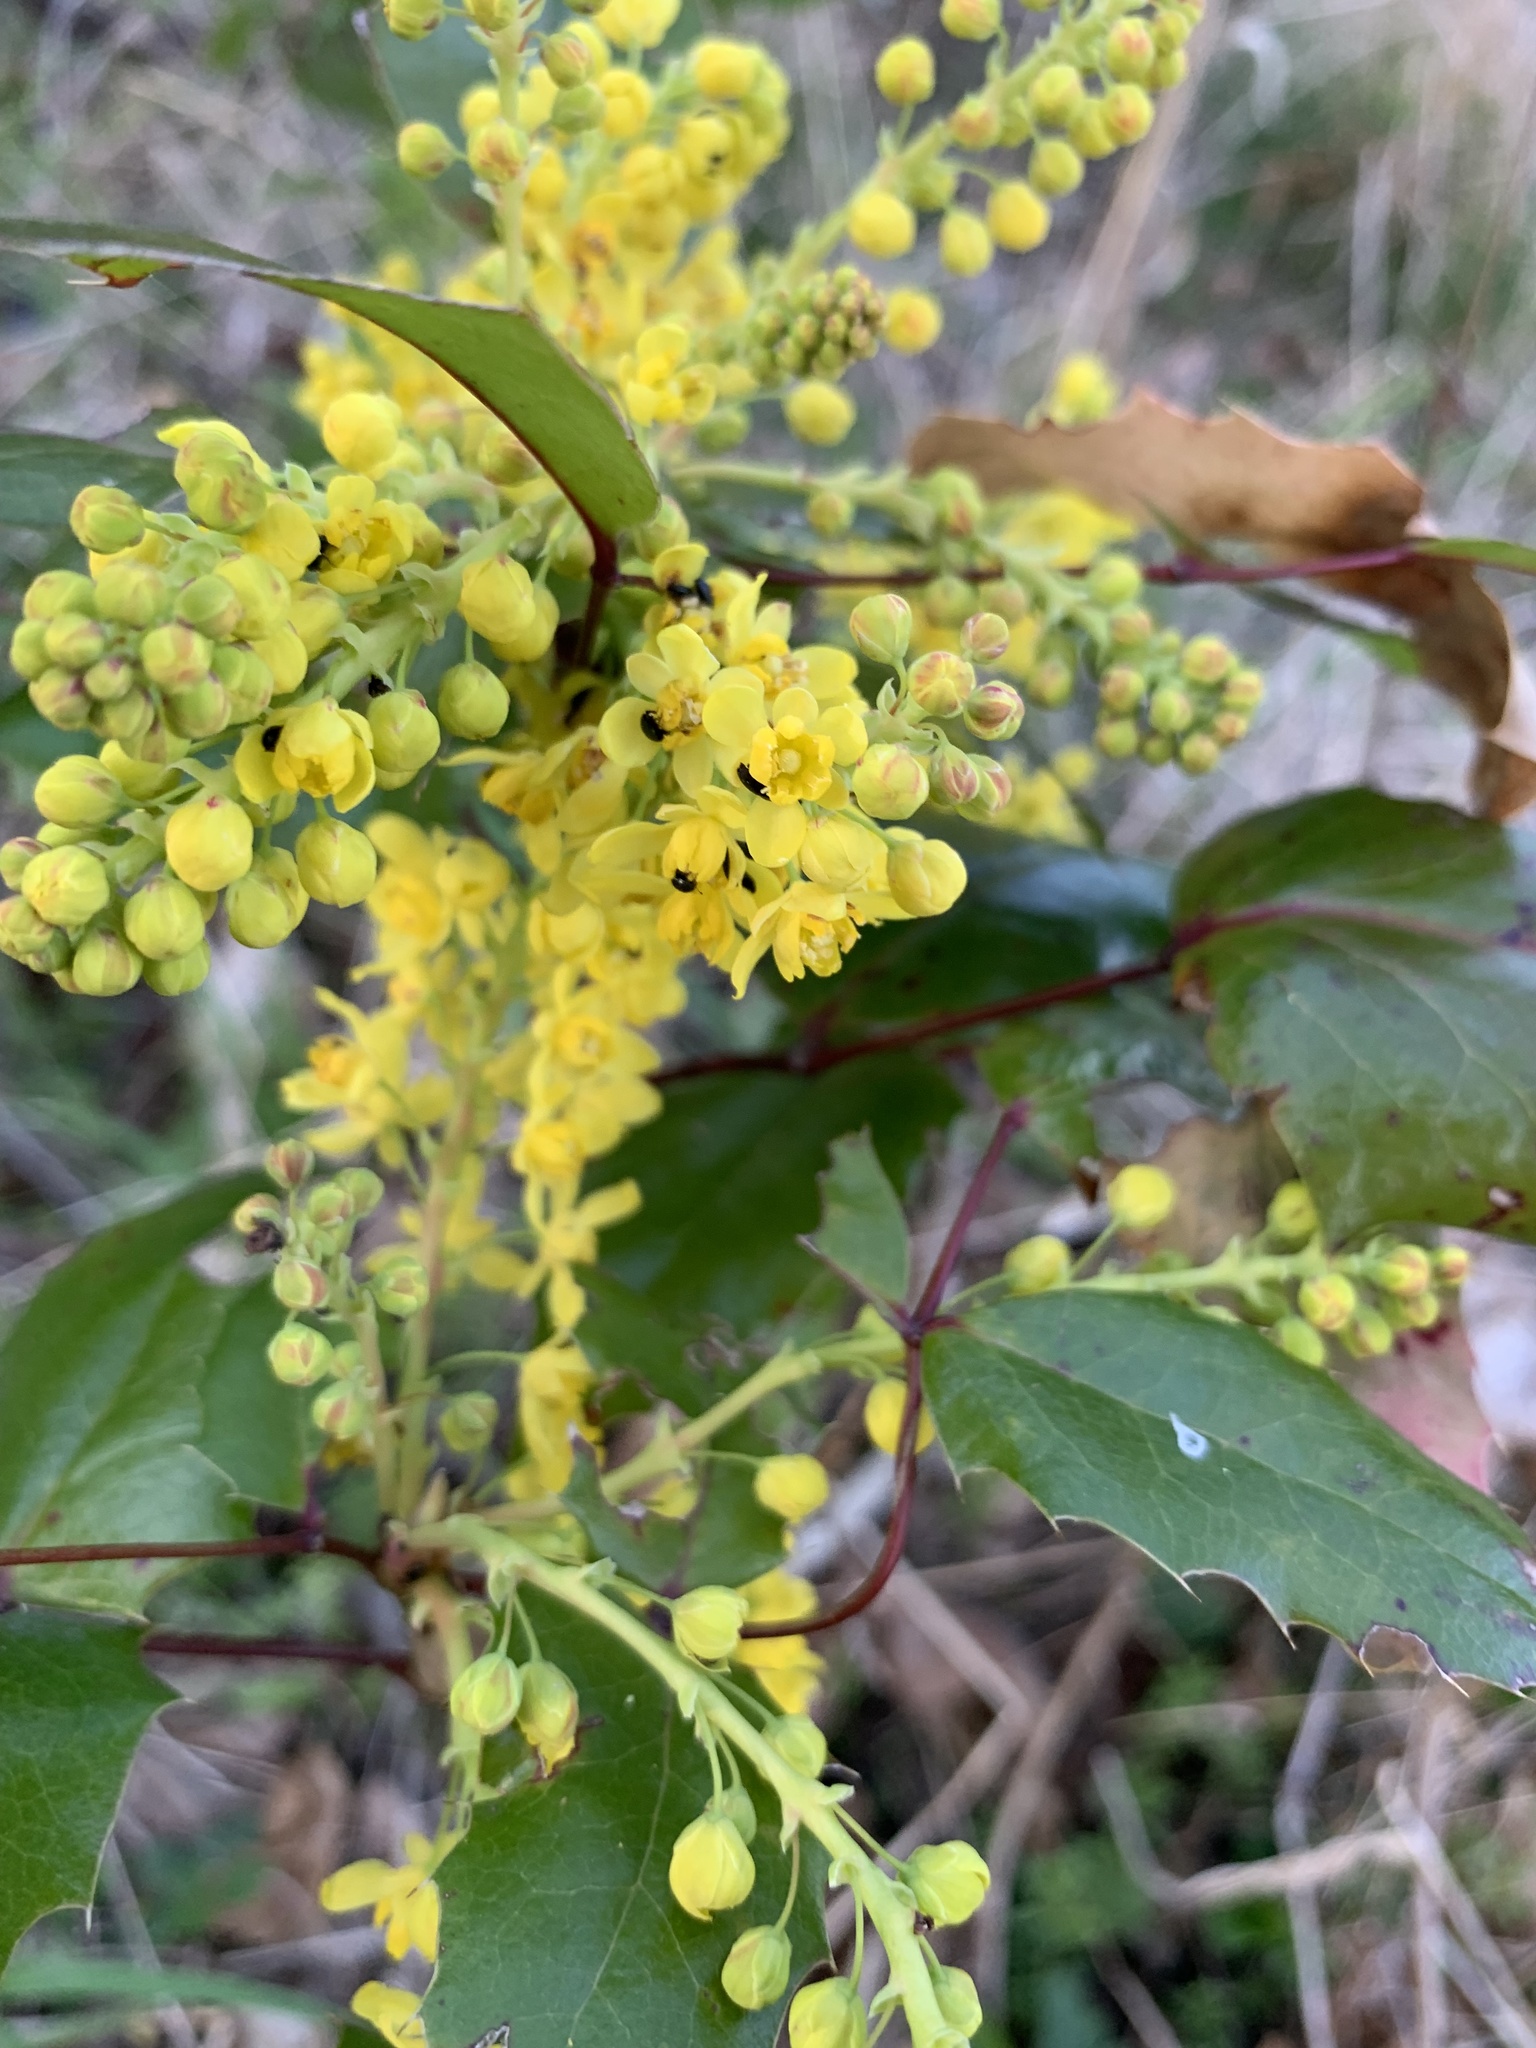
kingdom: Plantae
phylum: Tracheophyta
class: Magnoliopsida
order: Ranunculales
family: Berberidaceae
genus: Mahonia
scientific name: Mahonia aquifolium
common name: Oregon-grape
